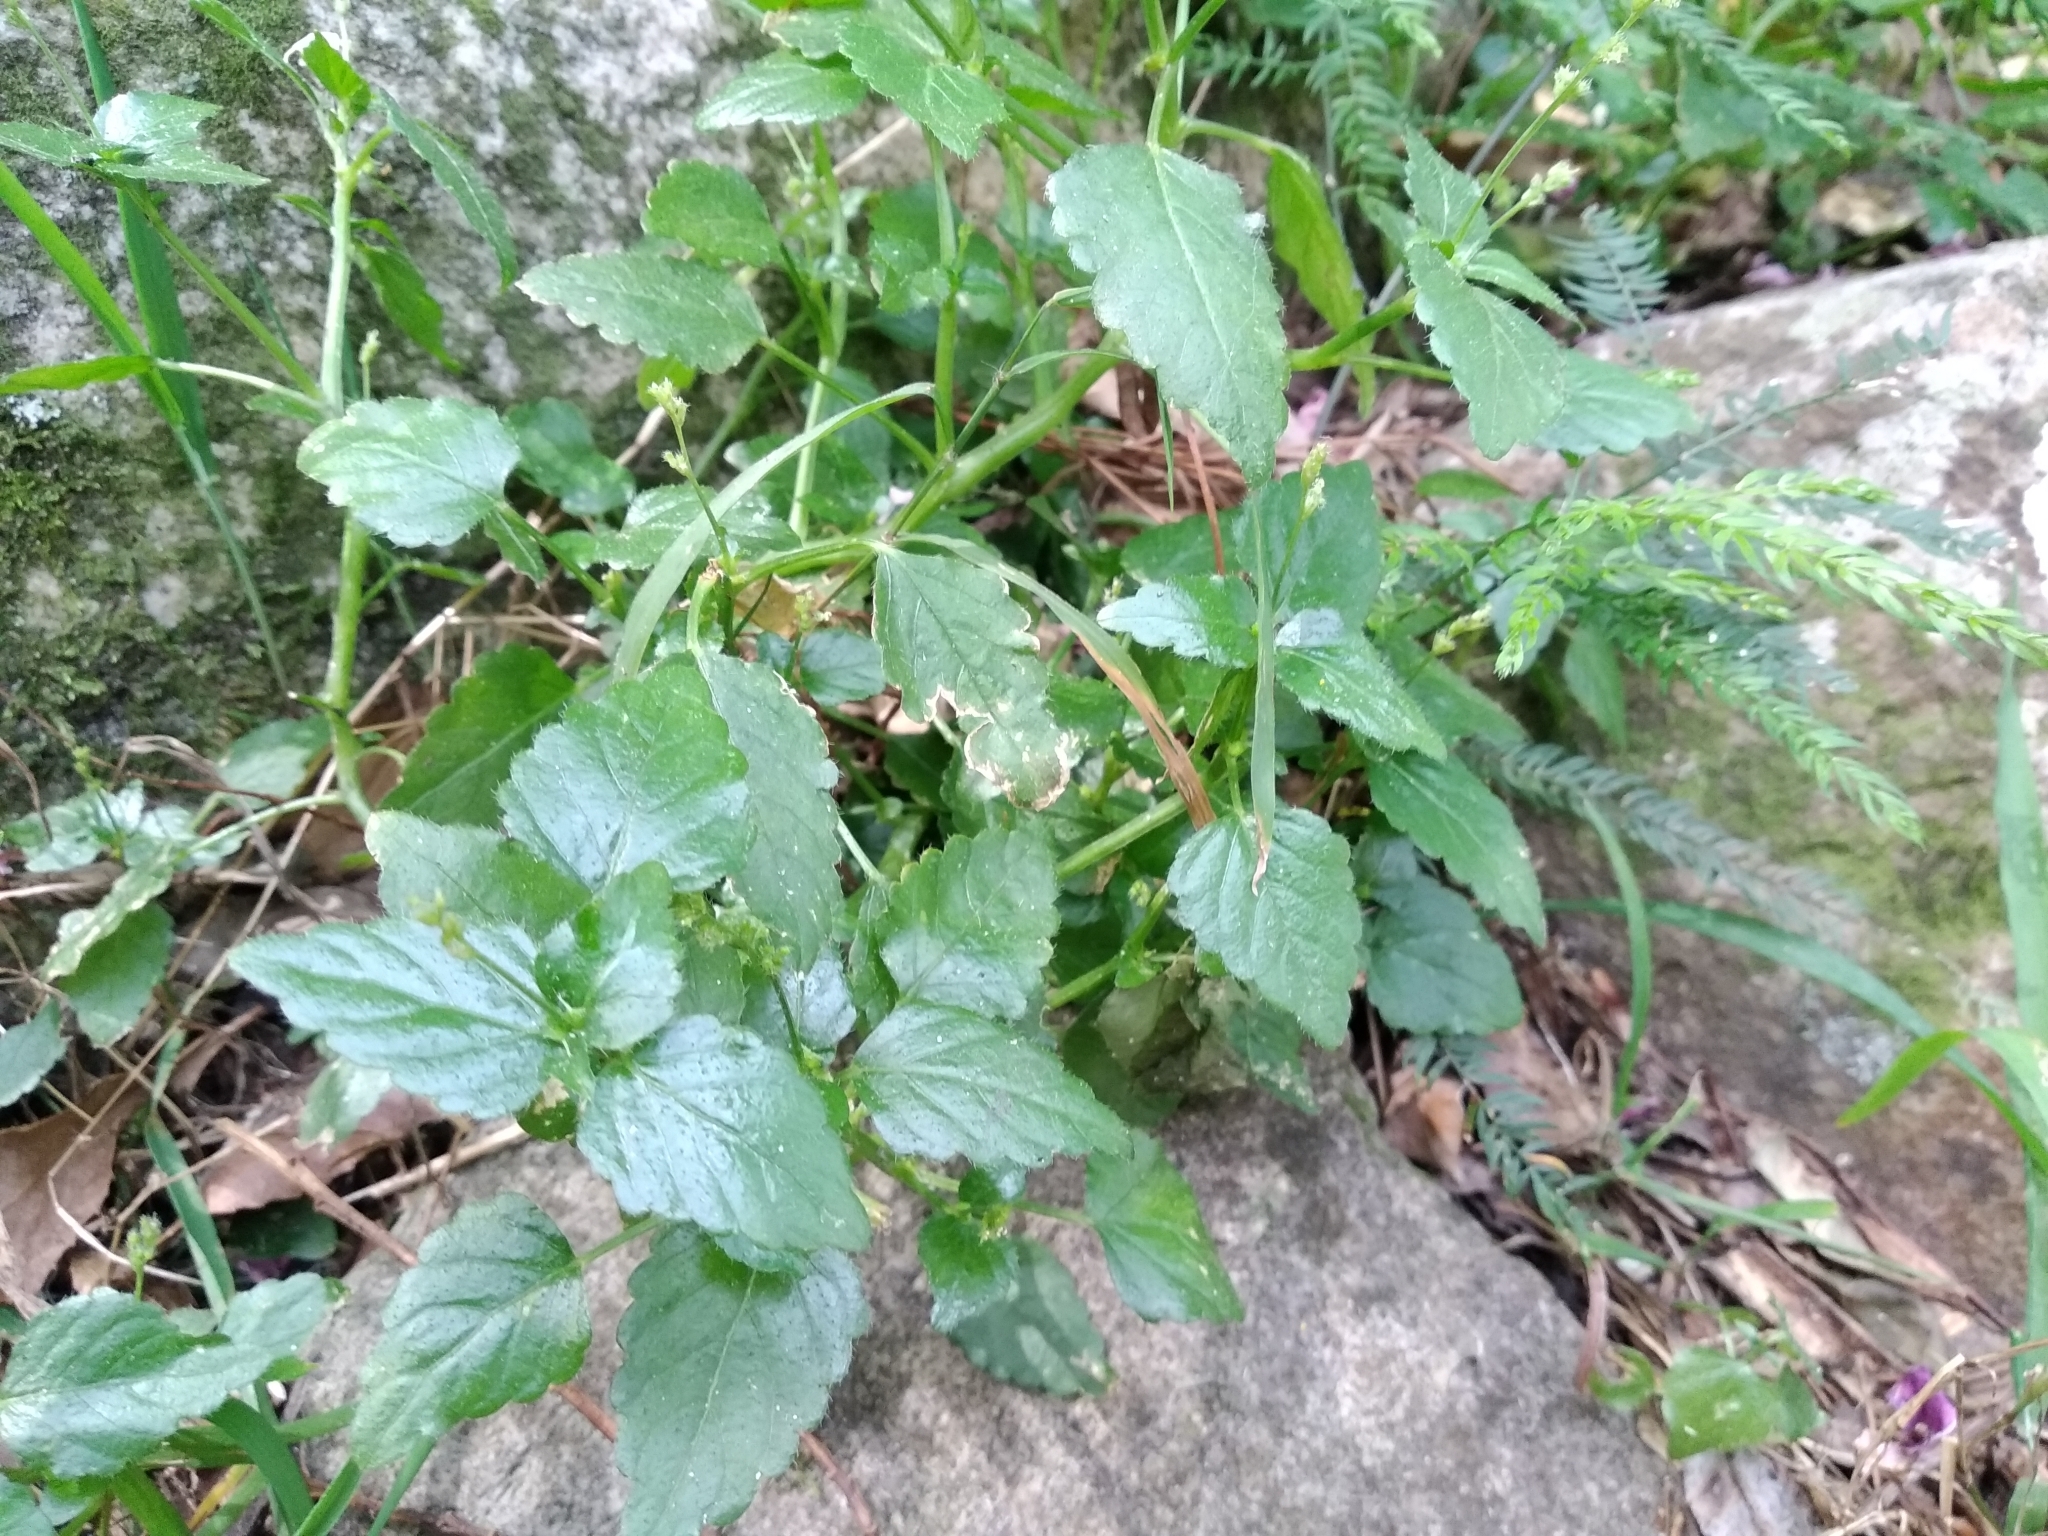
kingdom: Plantae
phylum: Tracheophyta
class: Magnoliopsida
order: Malpighiales
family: Euphorbiaceae
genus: Leidesia
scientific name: Leidesia procumbens
